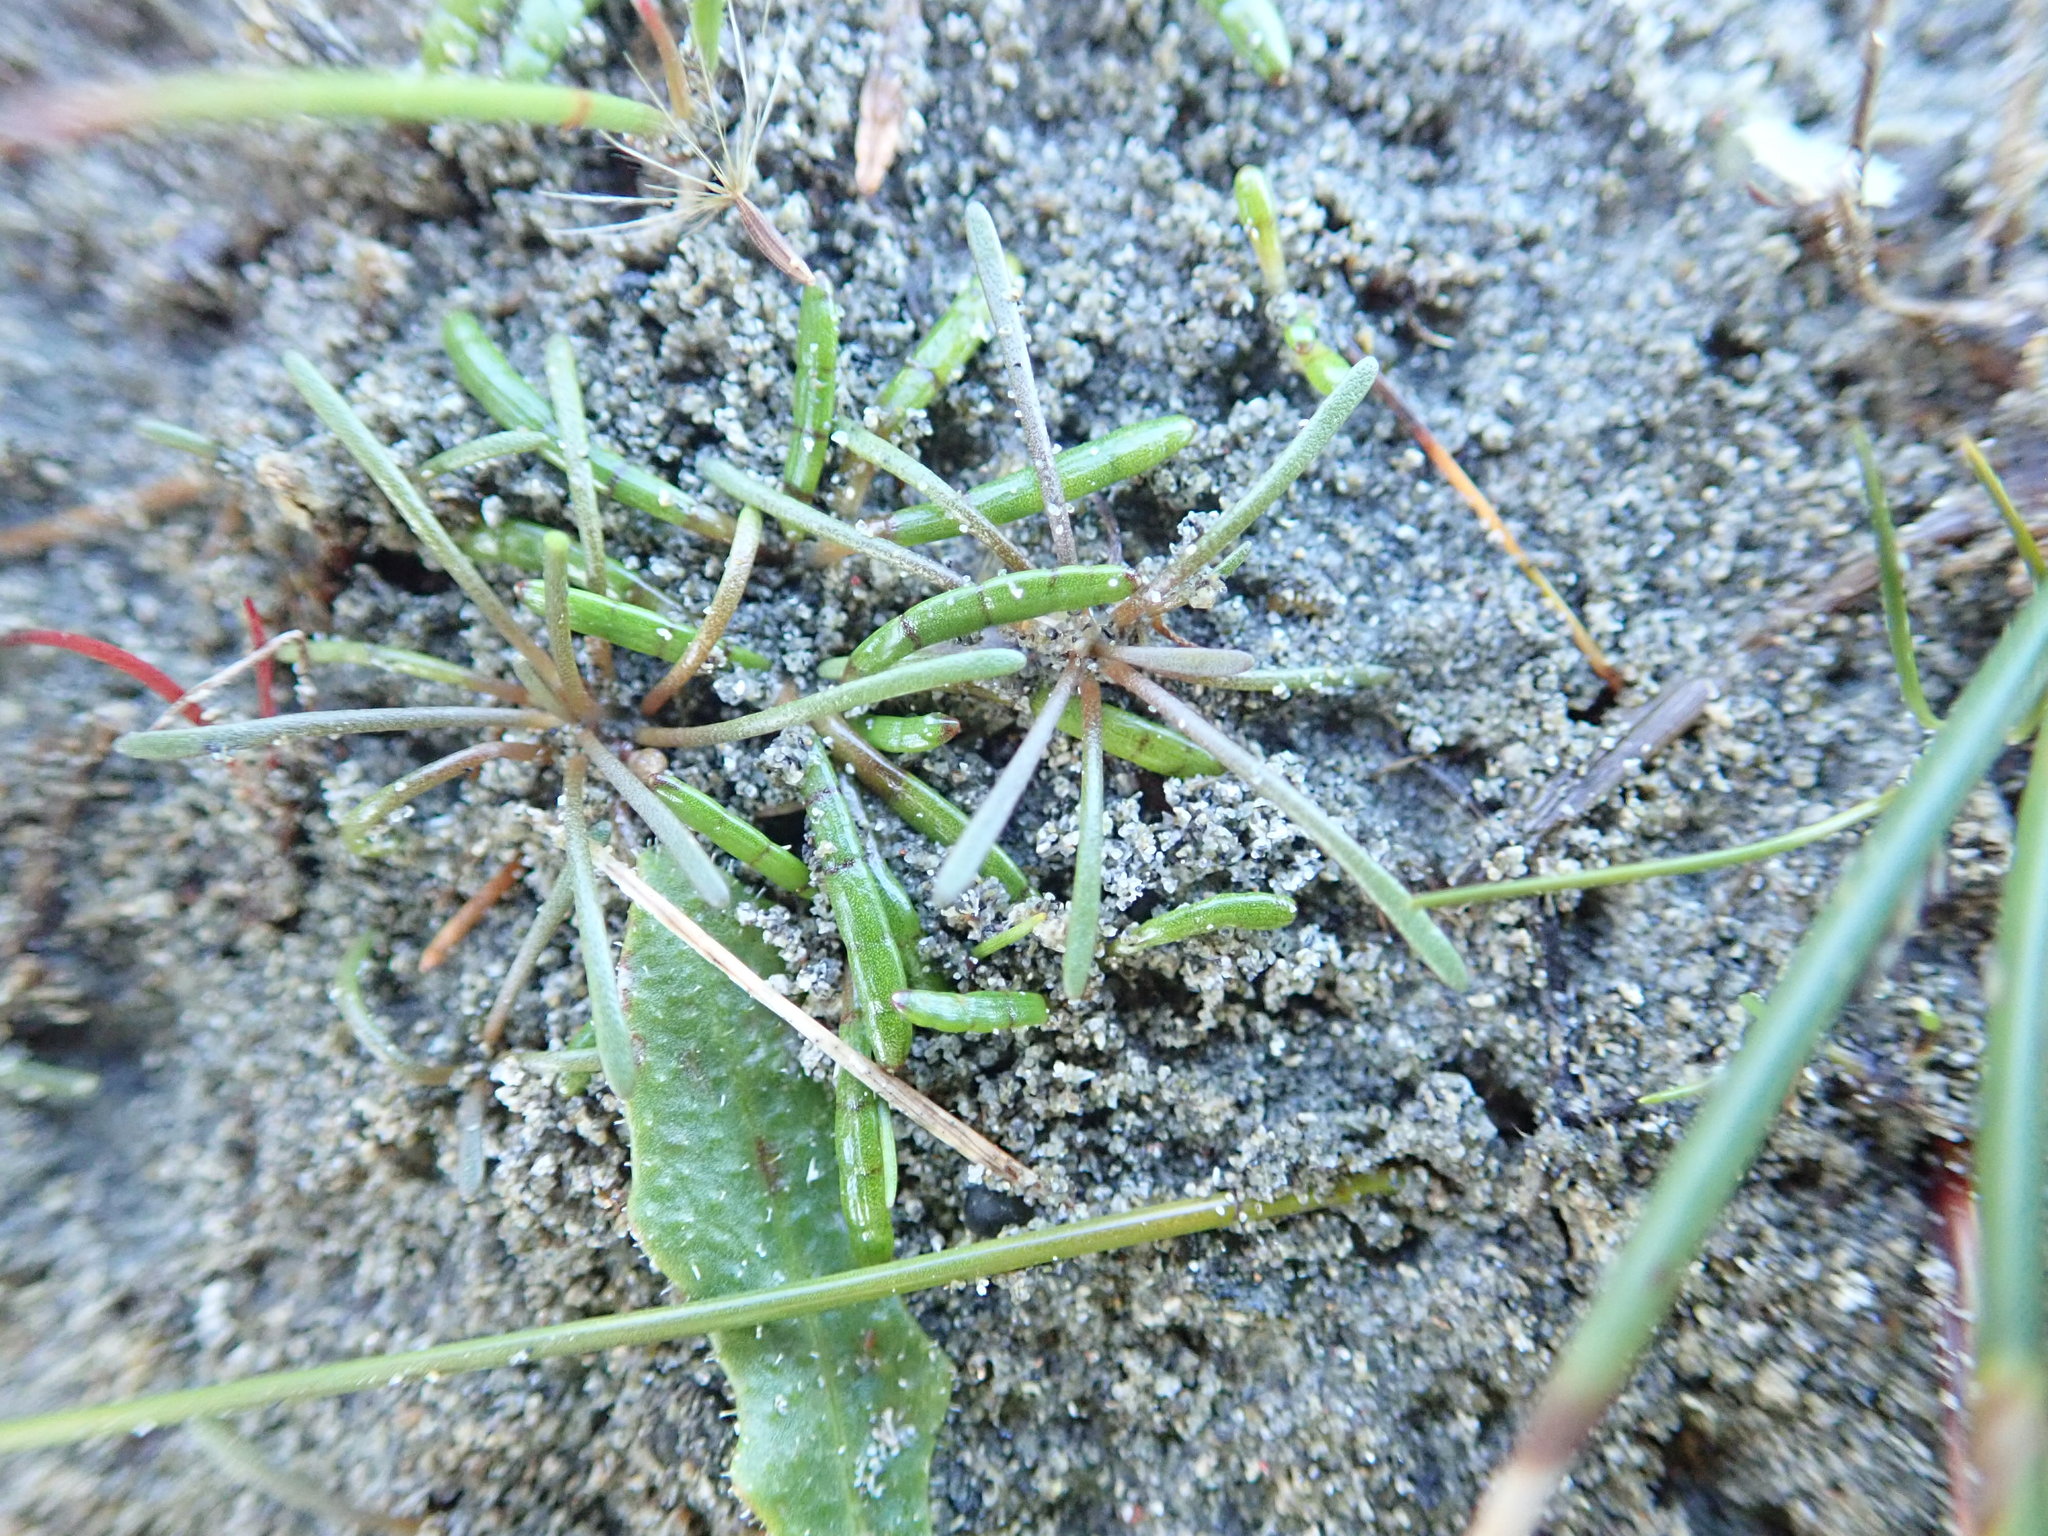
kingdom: Plantae
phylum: Tracheophyta
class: Magnoliopsida
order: Lamiales
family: Scrophulariaceae
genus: Limosella
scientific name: Limosella australis
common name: Welsh mudwort
